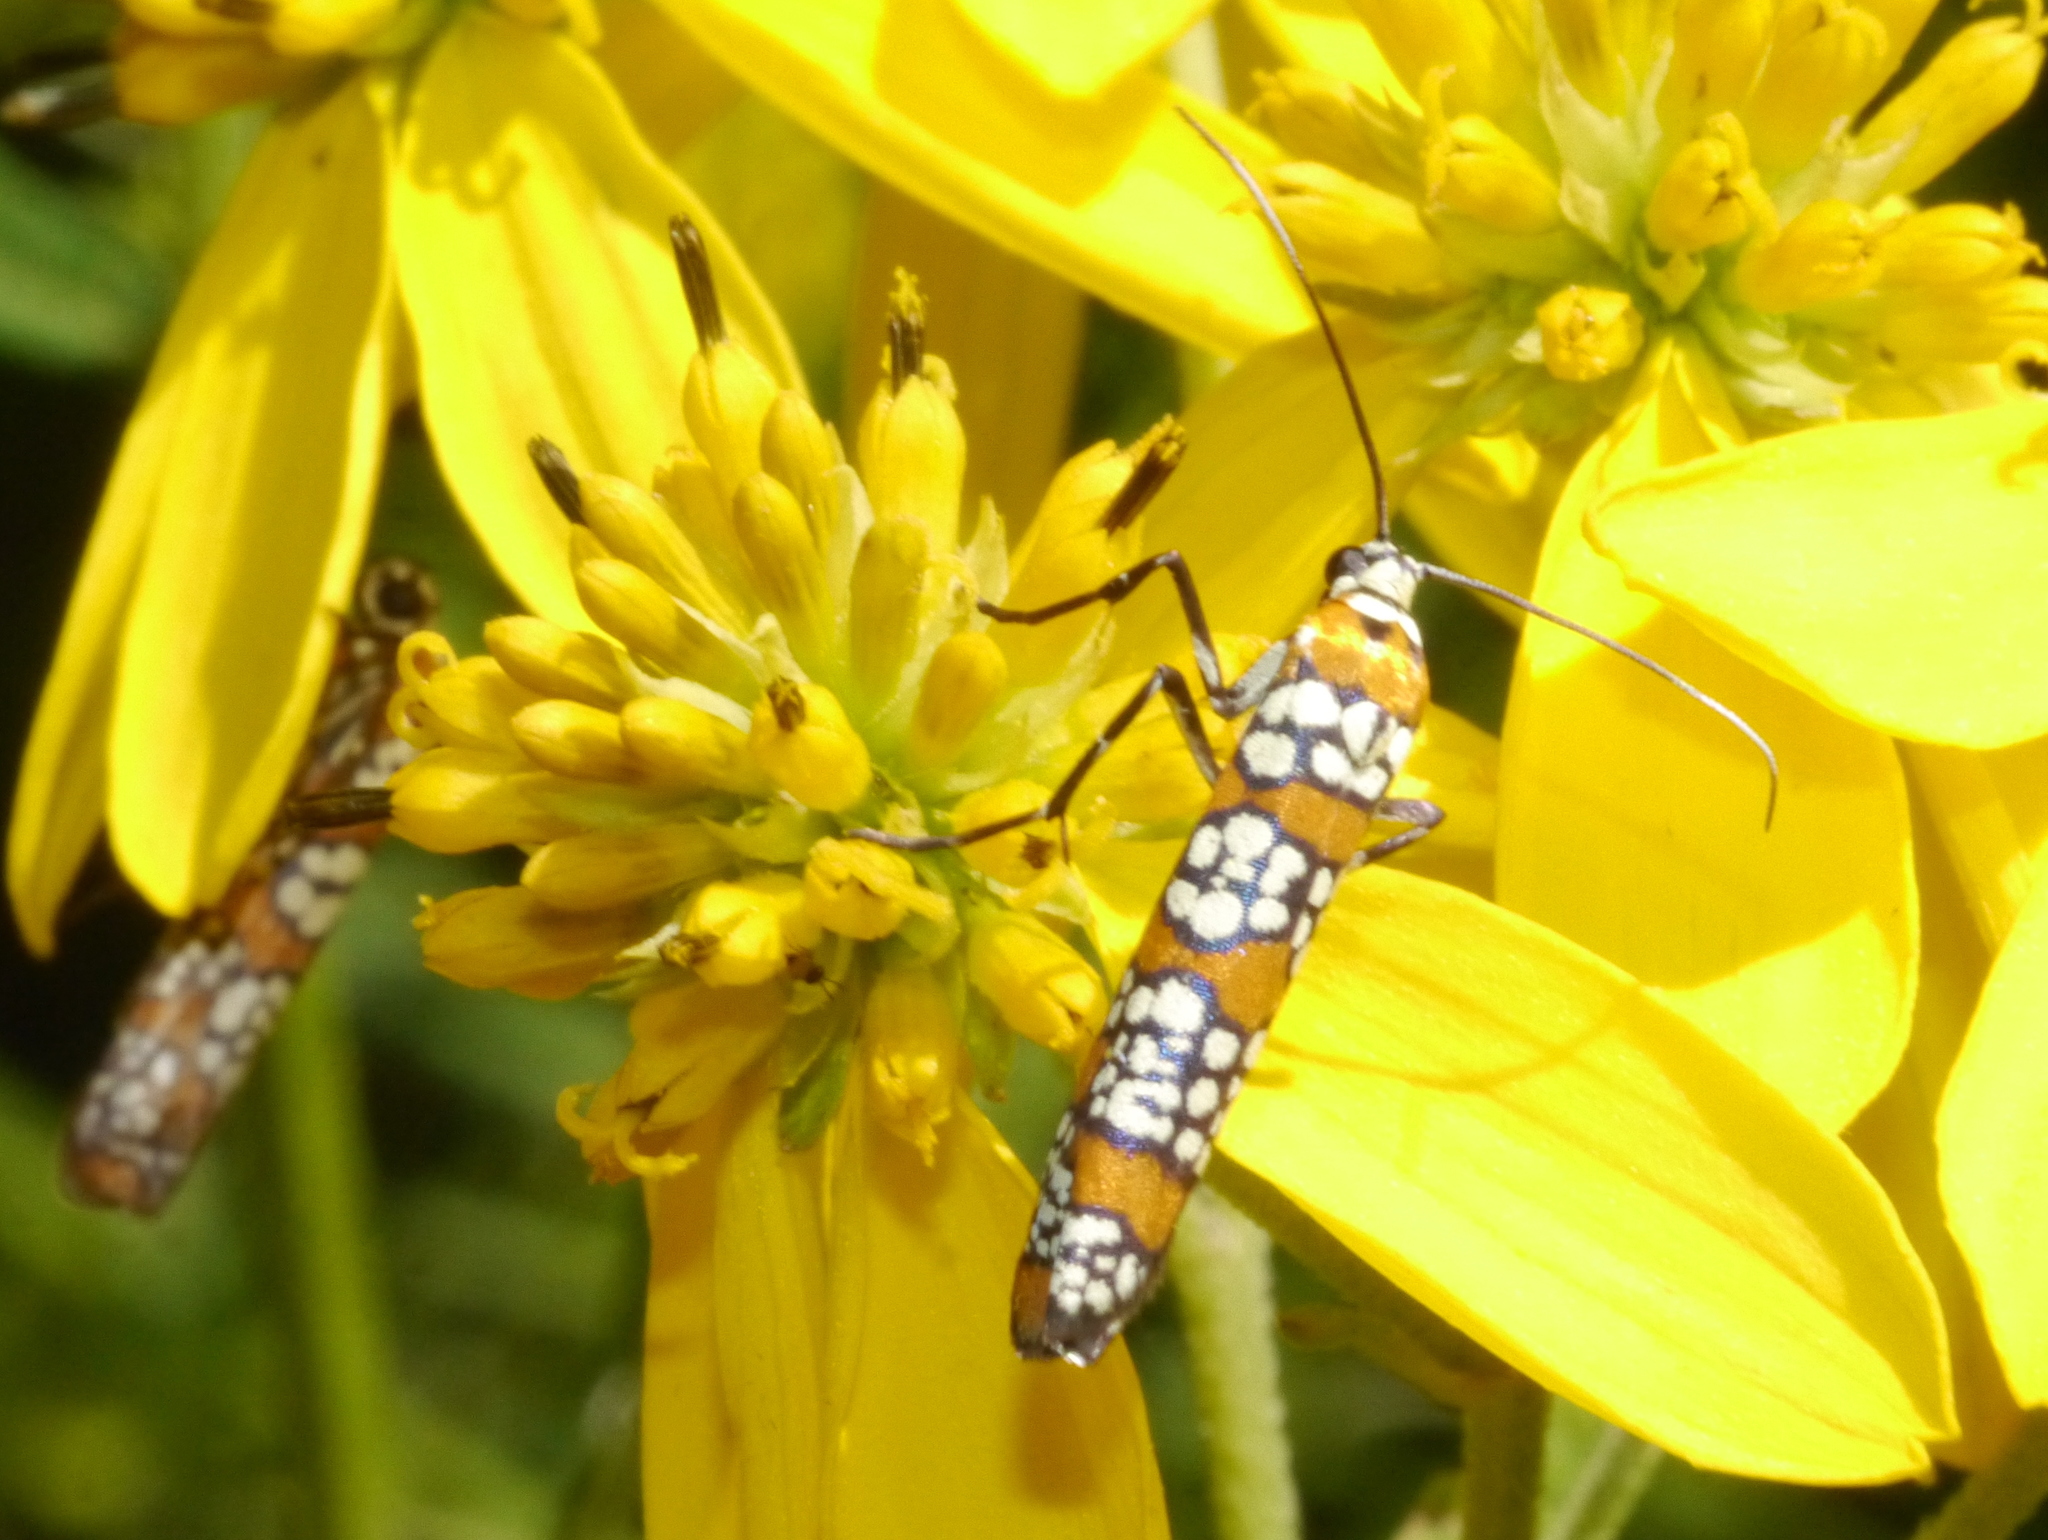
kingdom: Animalia
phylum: Arthropoda
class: Insecta
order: Lepidoptera
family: Attevidae
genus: Atteva
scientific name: Atteva punctella
